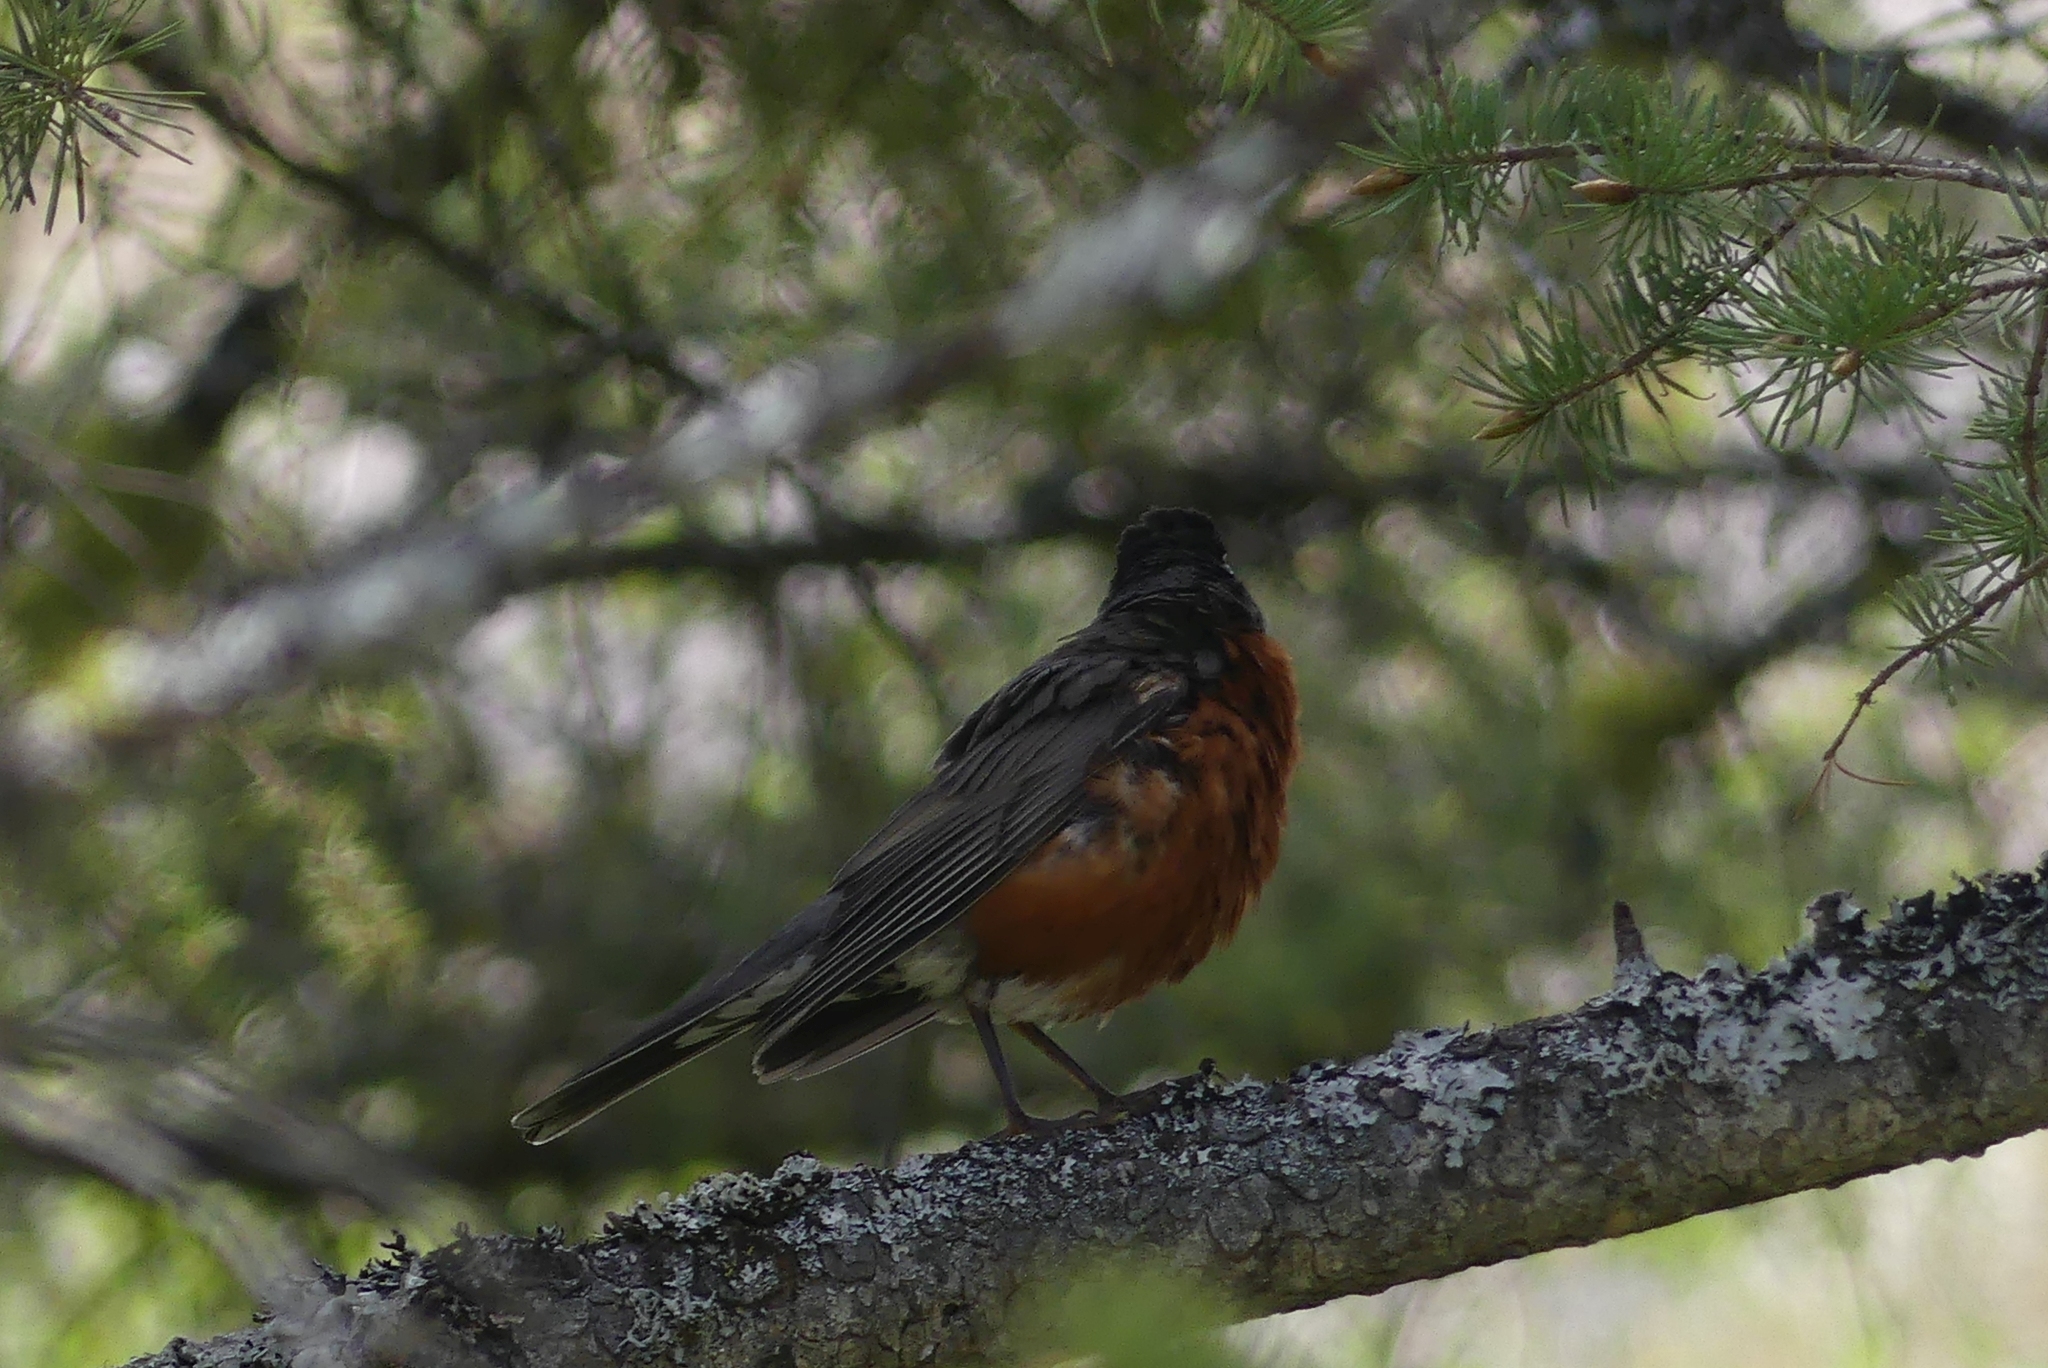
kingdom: Animalia
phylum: Chordata
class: Aves
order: Passeriformes
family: Turdidae
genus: Turdus
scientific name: Turdus migratorius
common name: American robin
